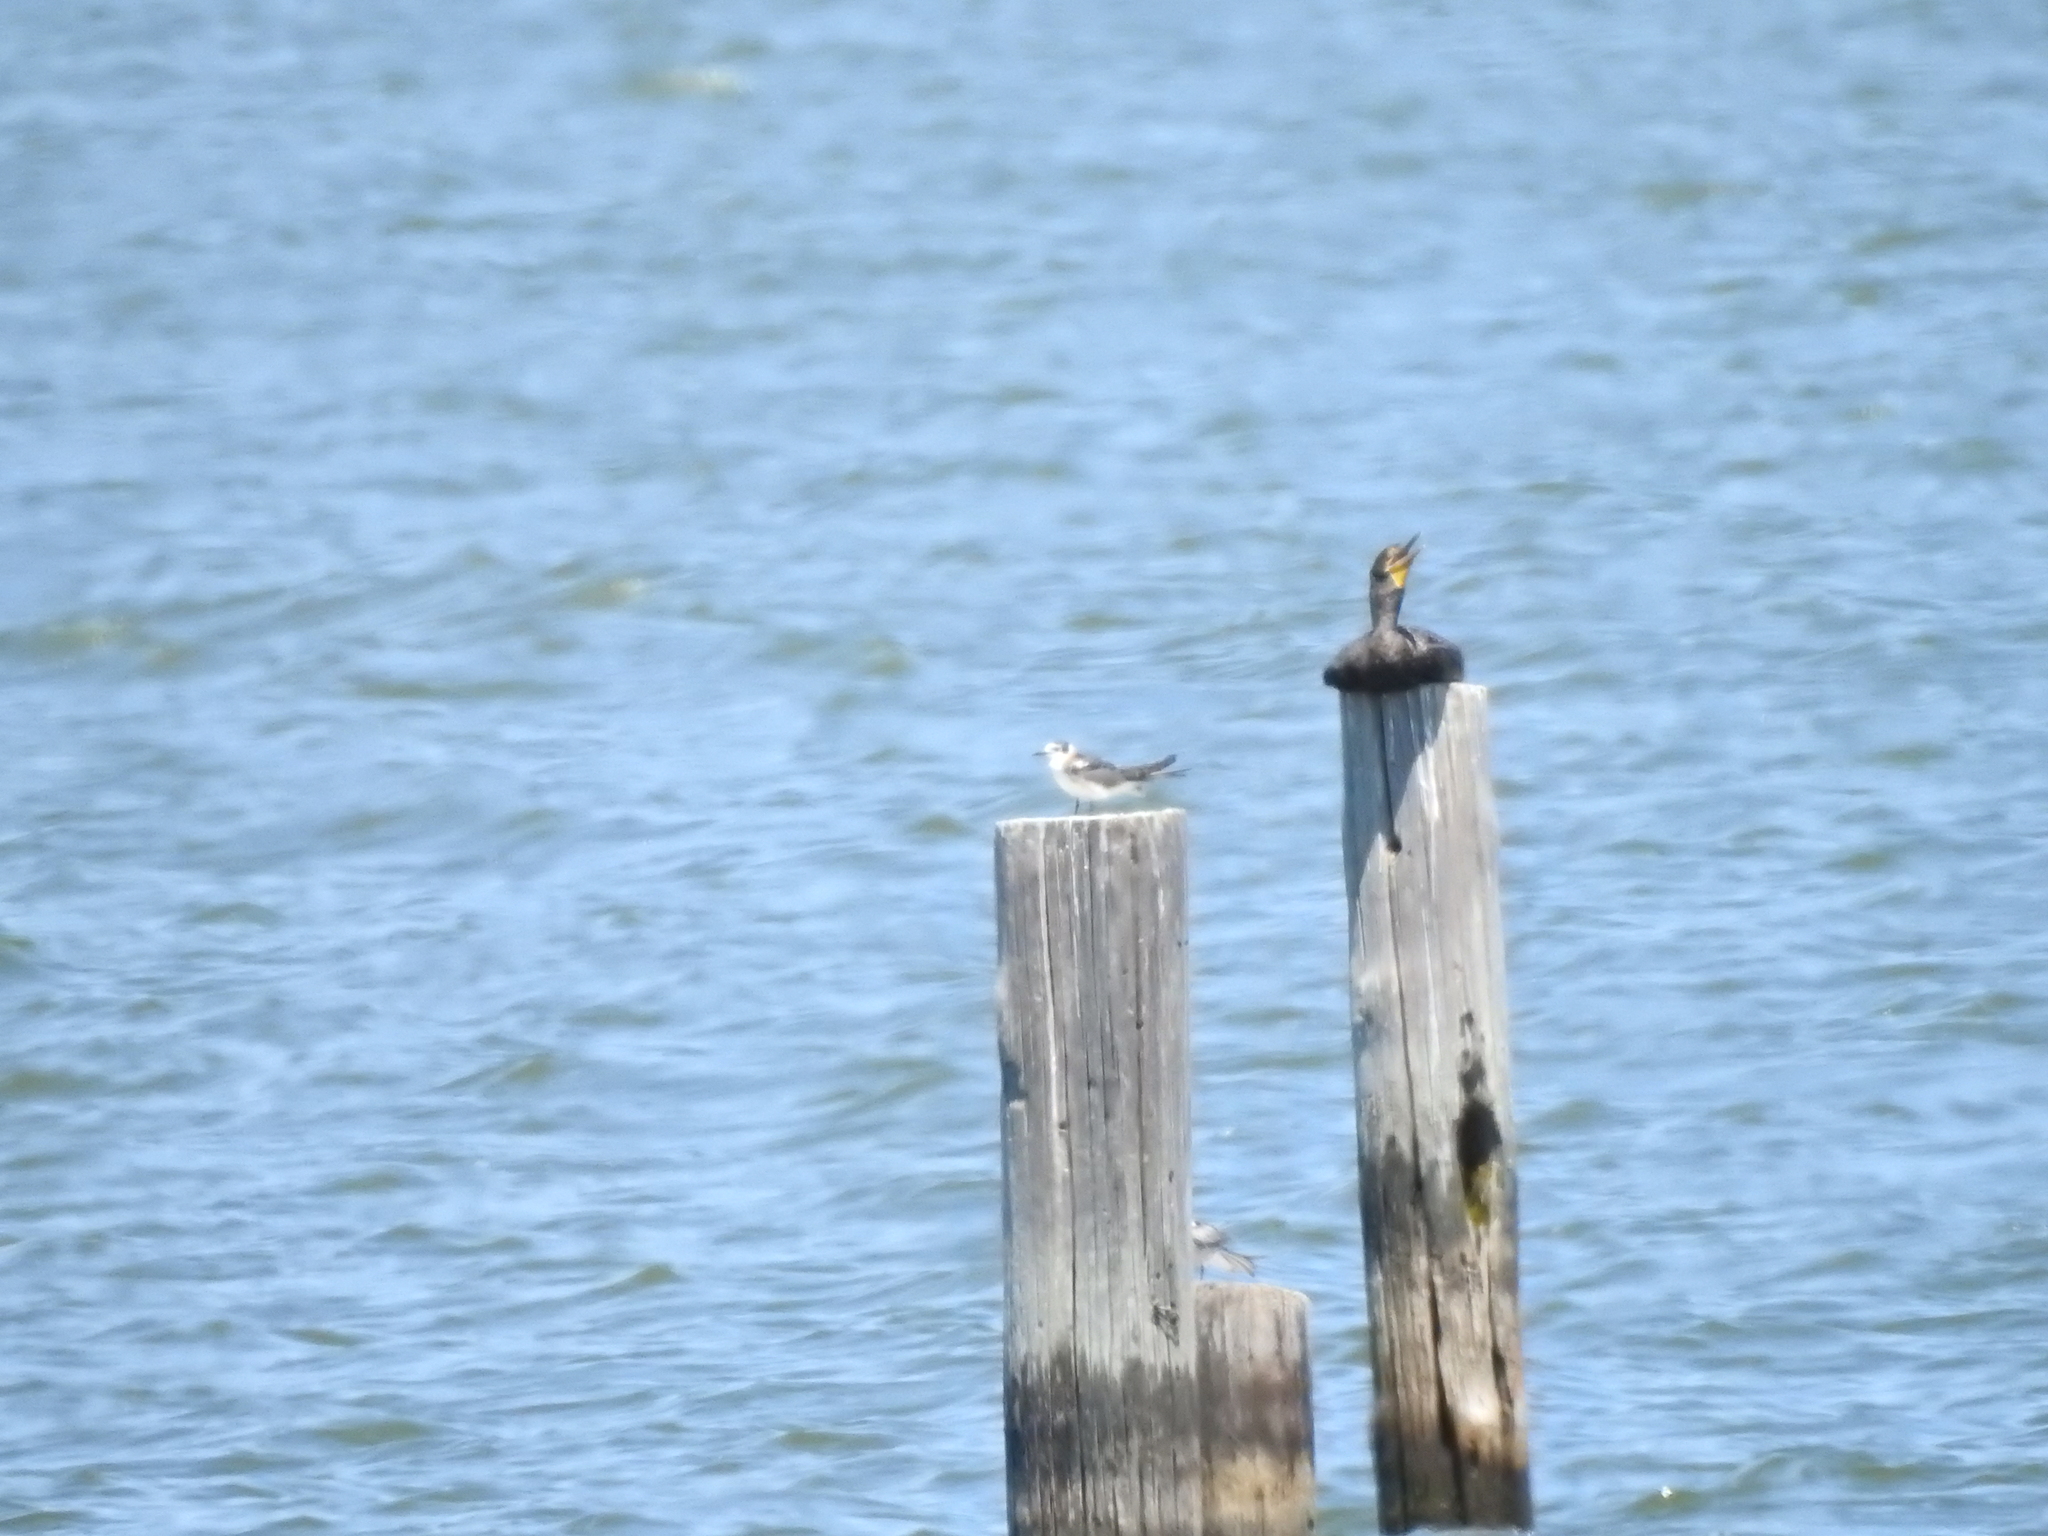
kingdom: Animalia
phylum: Chordata
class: Aves
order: Charadriiformes
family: Laridae
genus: Chlidonias
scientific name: Chlidonias niger
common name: Black tern
